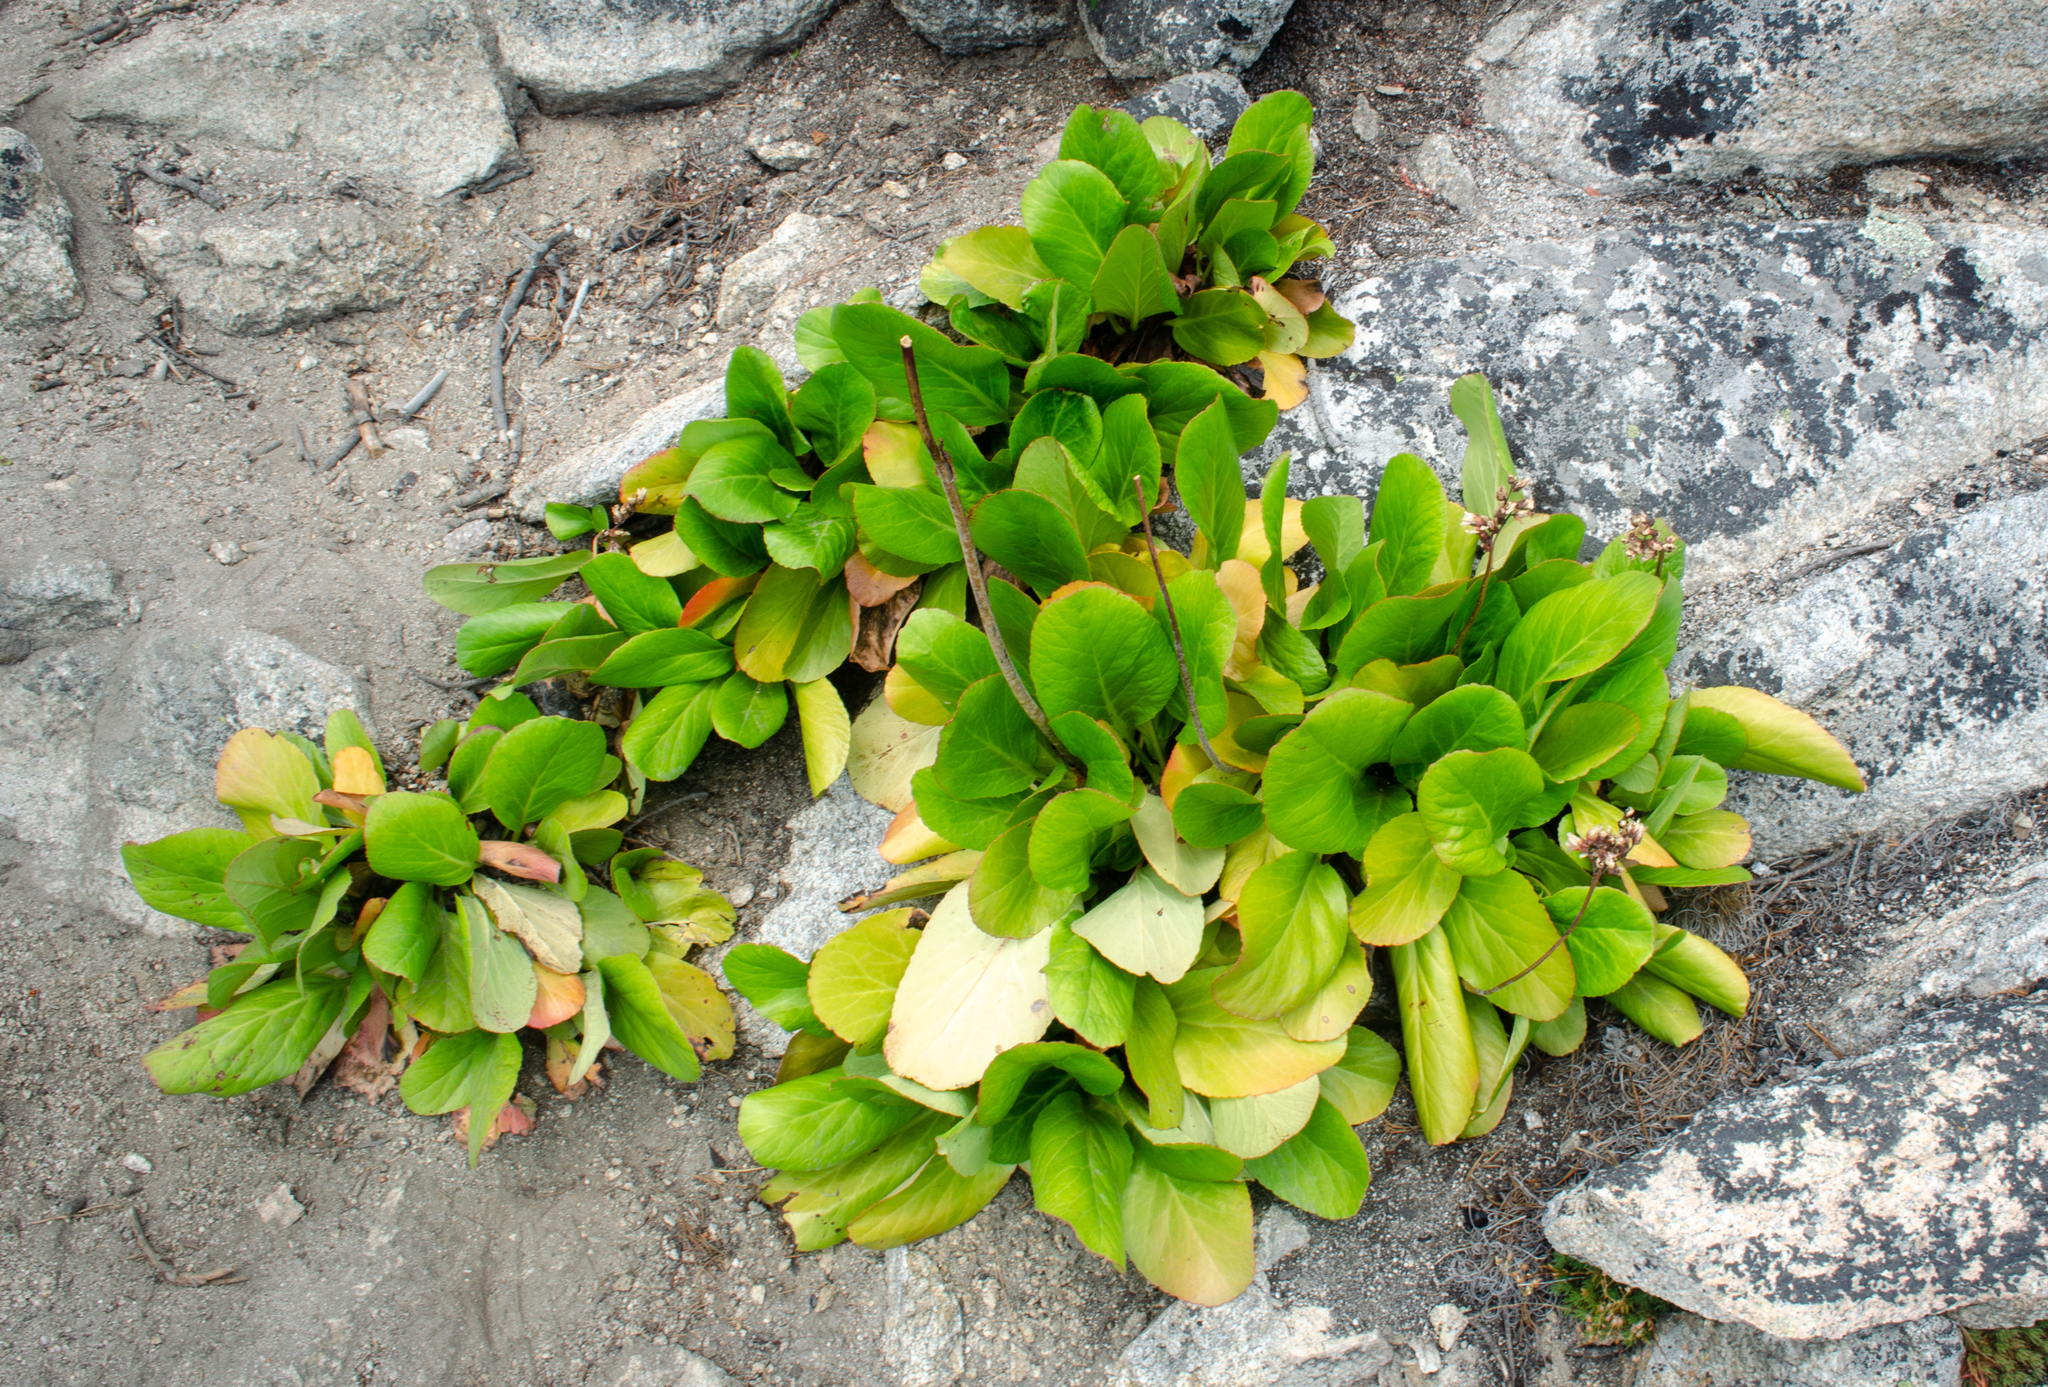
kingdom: Plantae
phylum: Tracheophyta
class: Magnoliopsida
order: Saxifragales
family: Saxifragaceae
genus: Bergenia
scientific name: Bergenia crassifolia
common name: Elephant-ears
